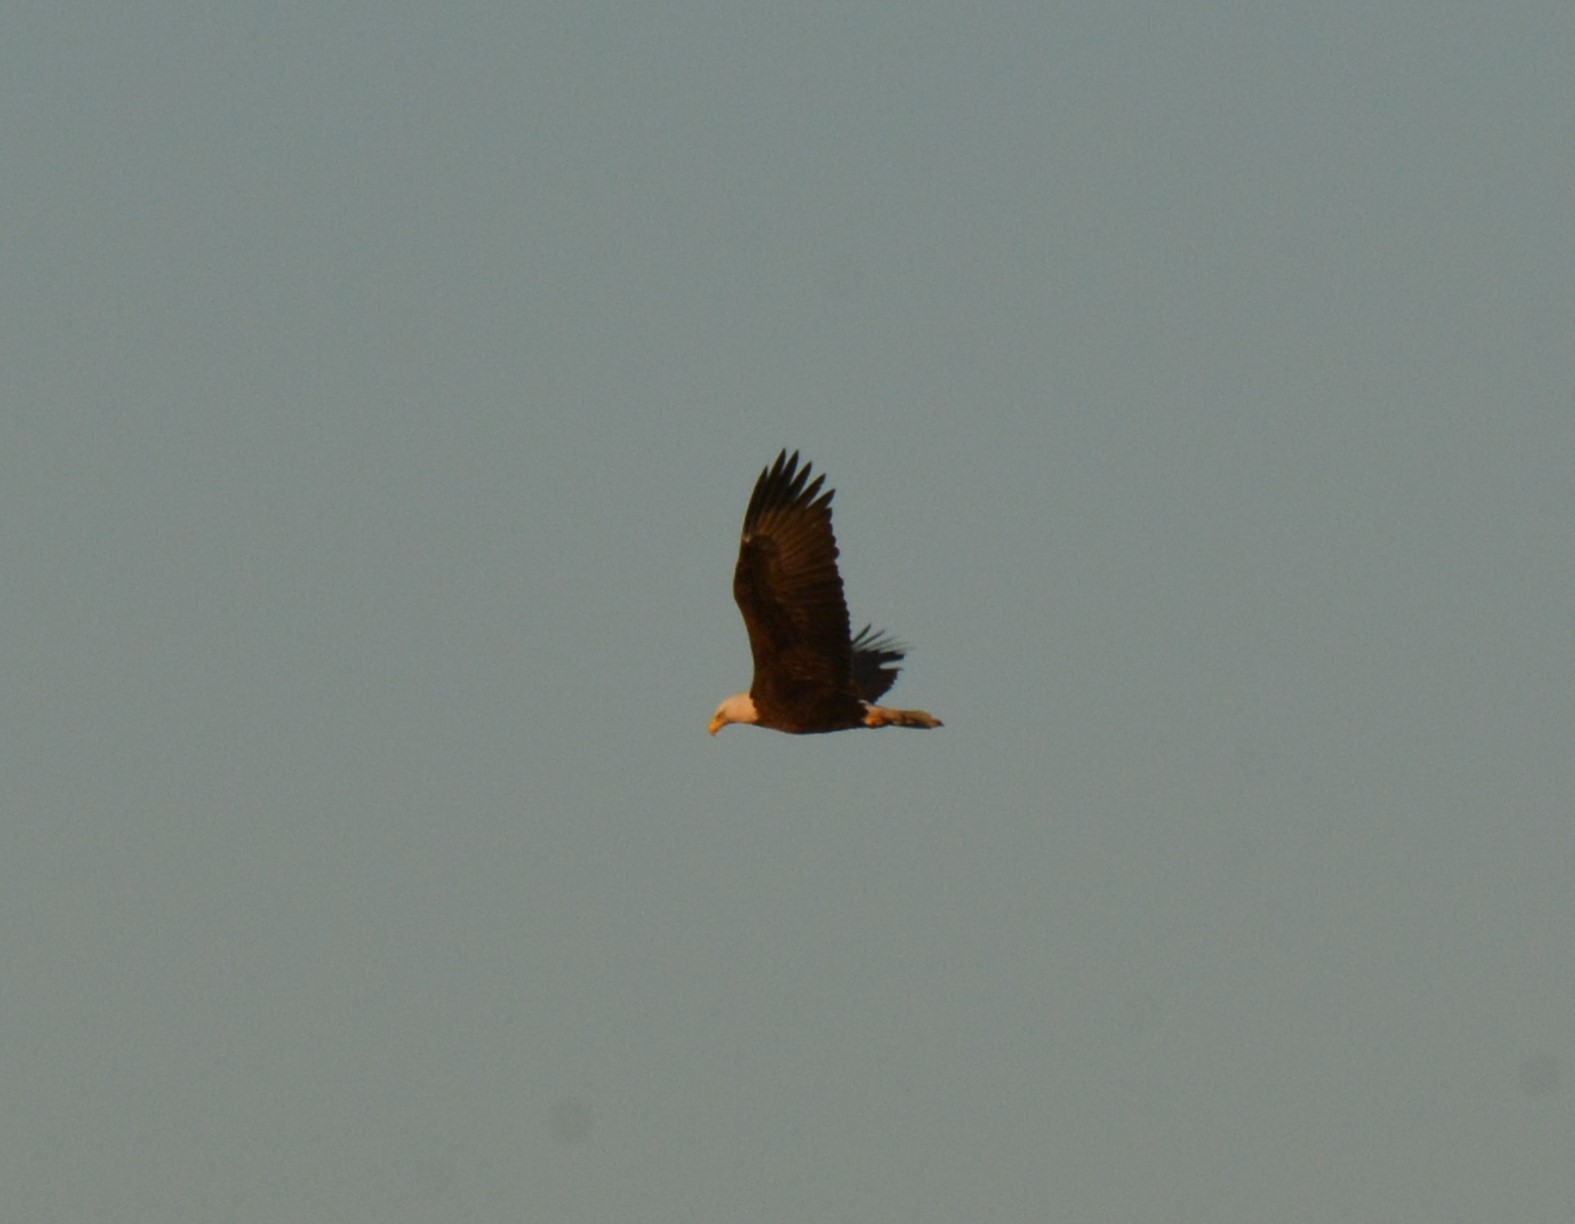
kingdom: Animalia
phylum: Chordata
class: Aves
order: Accipitriformes
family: Accipitridae
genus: Haliaeetus
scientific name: Haliaeetus leucocephalus
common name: Bald eagle
